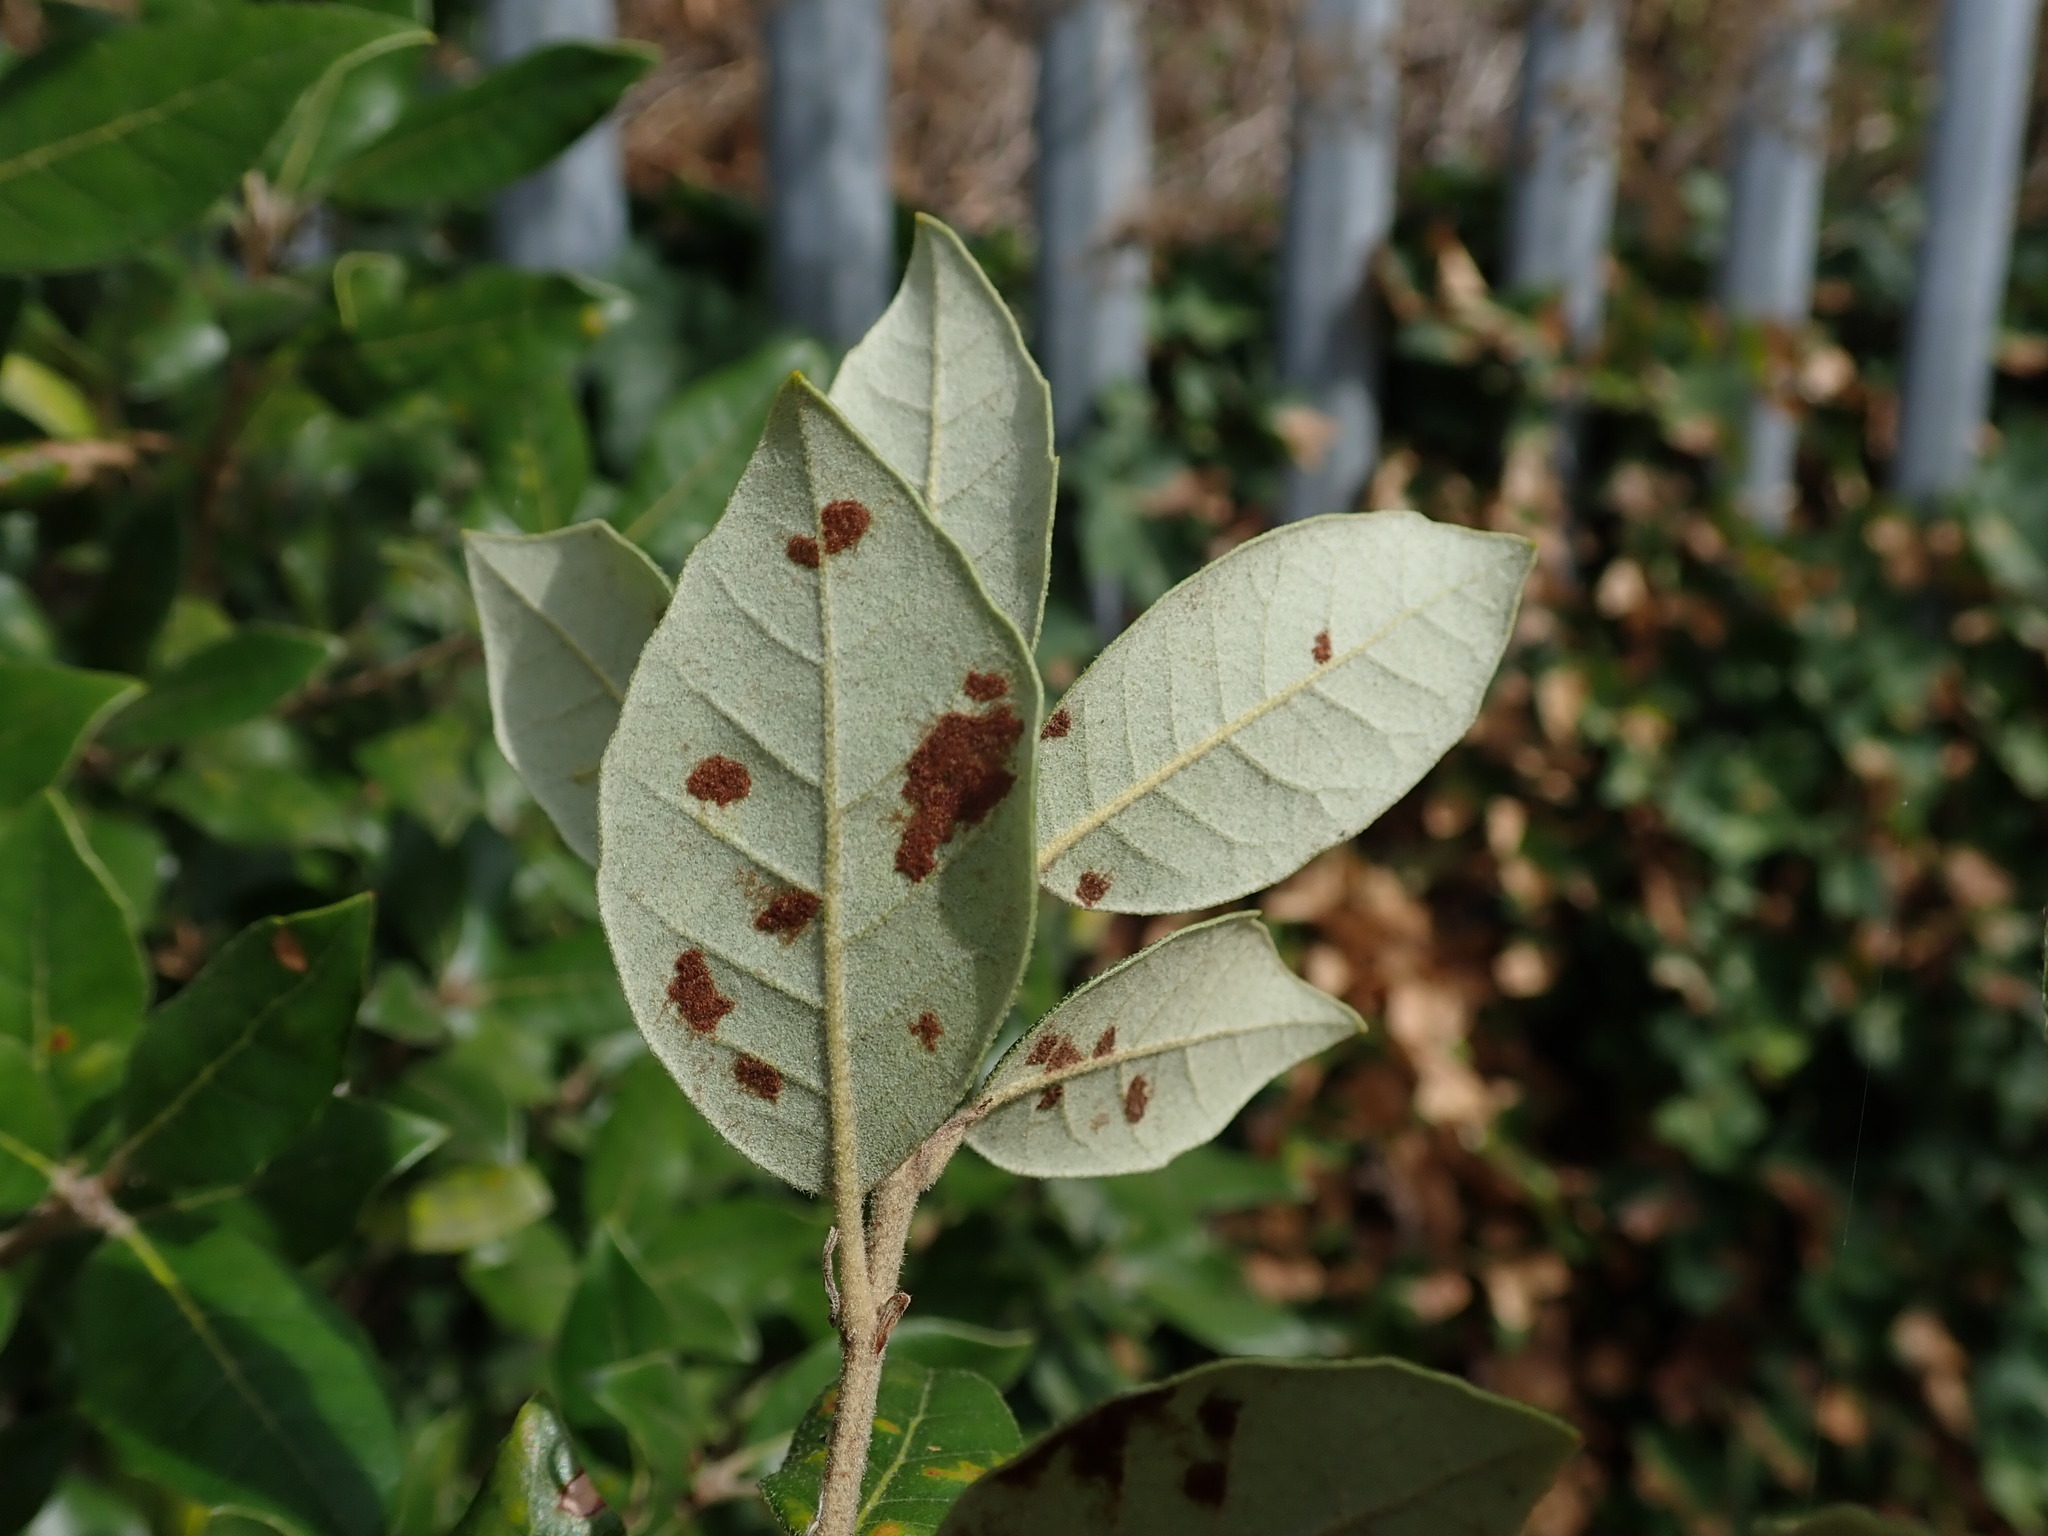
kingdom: Animalia
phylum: Arthropoda
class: Arachnida
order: Trombidiformes
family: Eriophyidae
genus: Aceria
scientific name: Aceria ilicis
